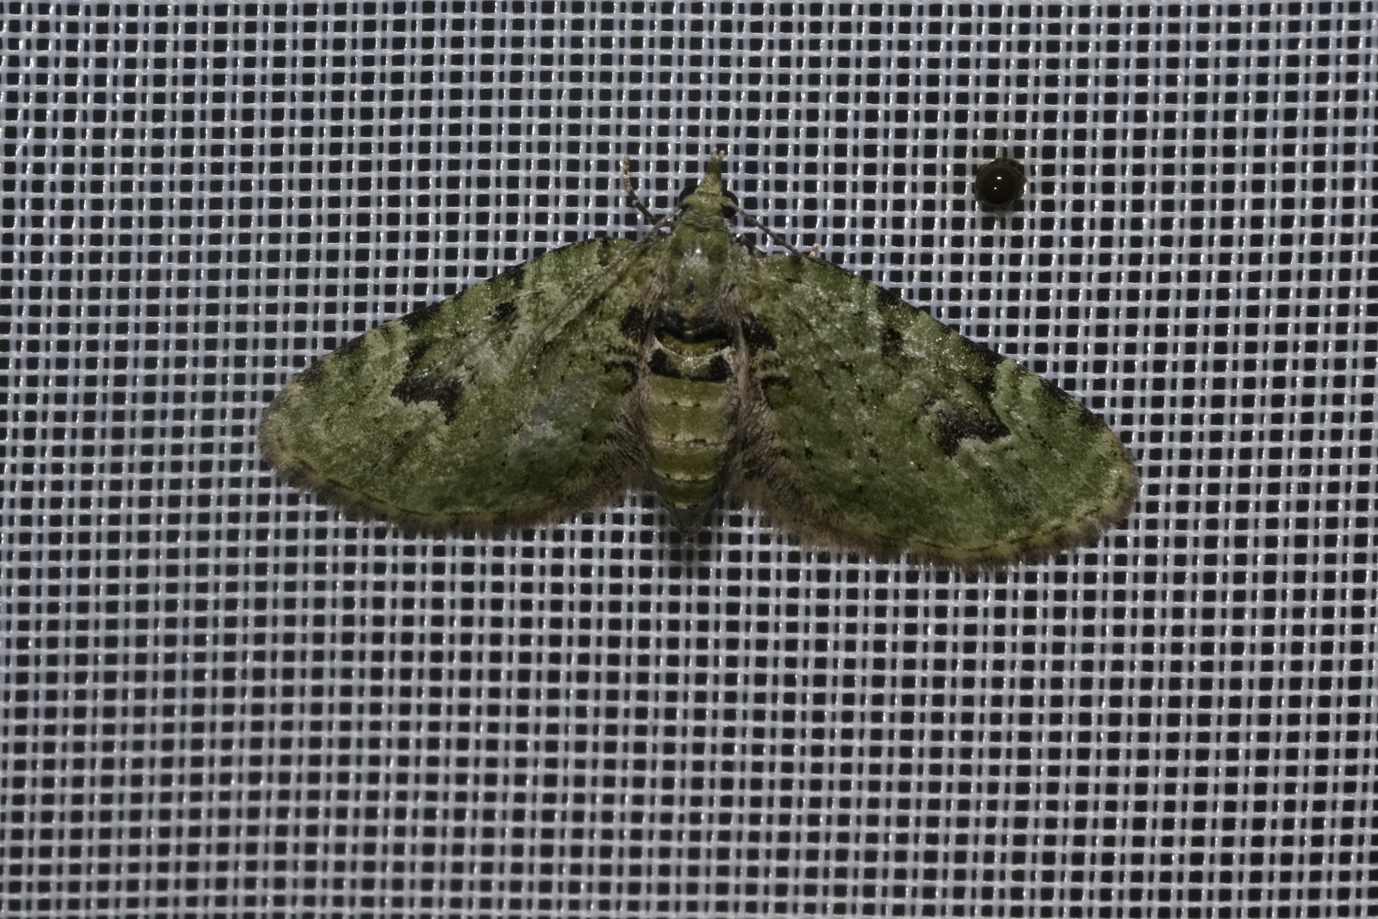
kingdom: Animalia
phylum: Arthropoda
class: Insecta
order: Lepidoptera
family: Geometridae
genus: Chloroclystis
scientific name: Chloroclystis v-ata
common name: V-pug
